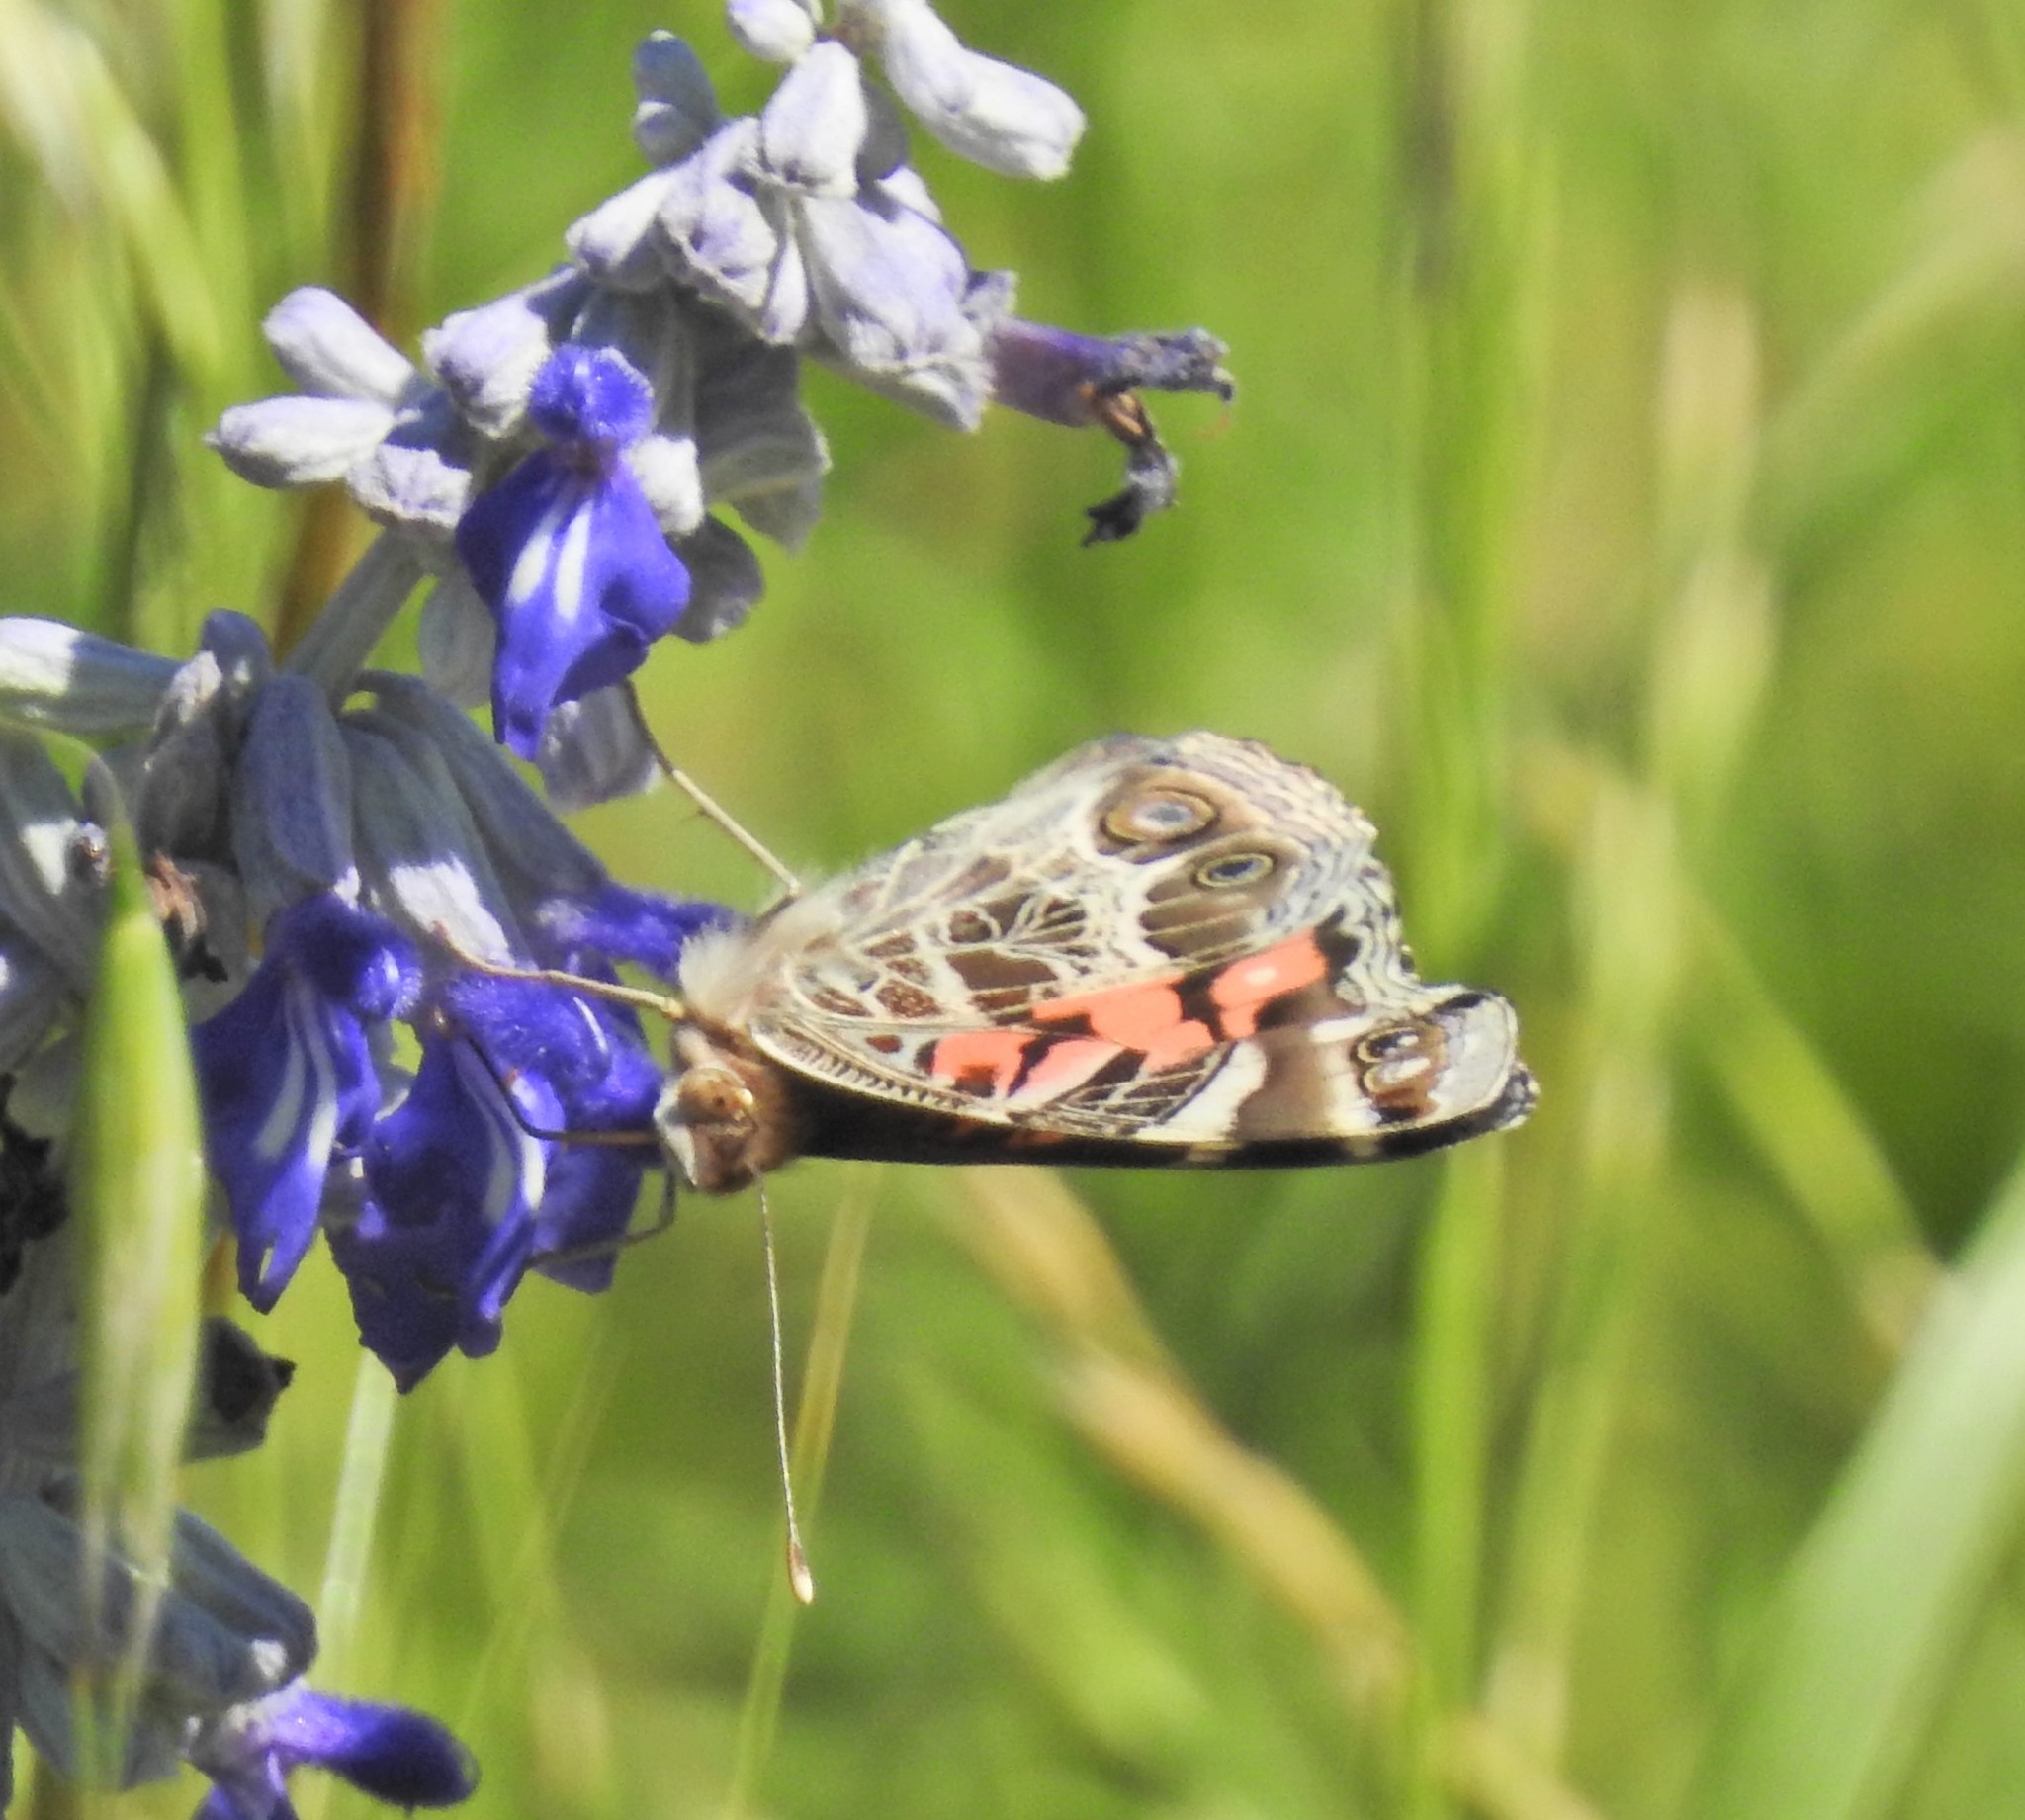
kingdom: Animalia
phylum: Arthropoda
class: Insecta
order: Lepidoptera
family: Nymphalidae
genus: Vanessa
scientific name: Vanessa virginiensis
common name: American lady
